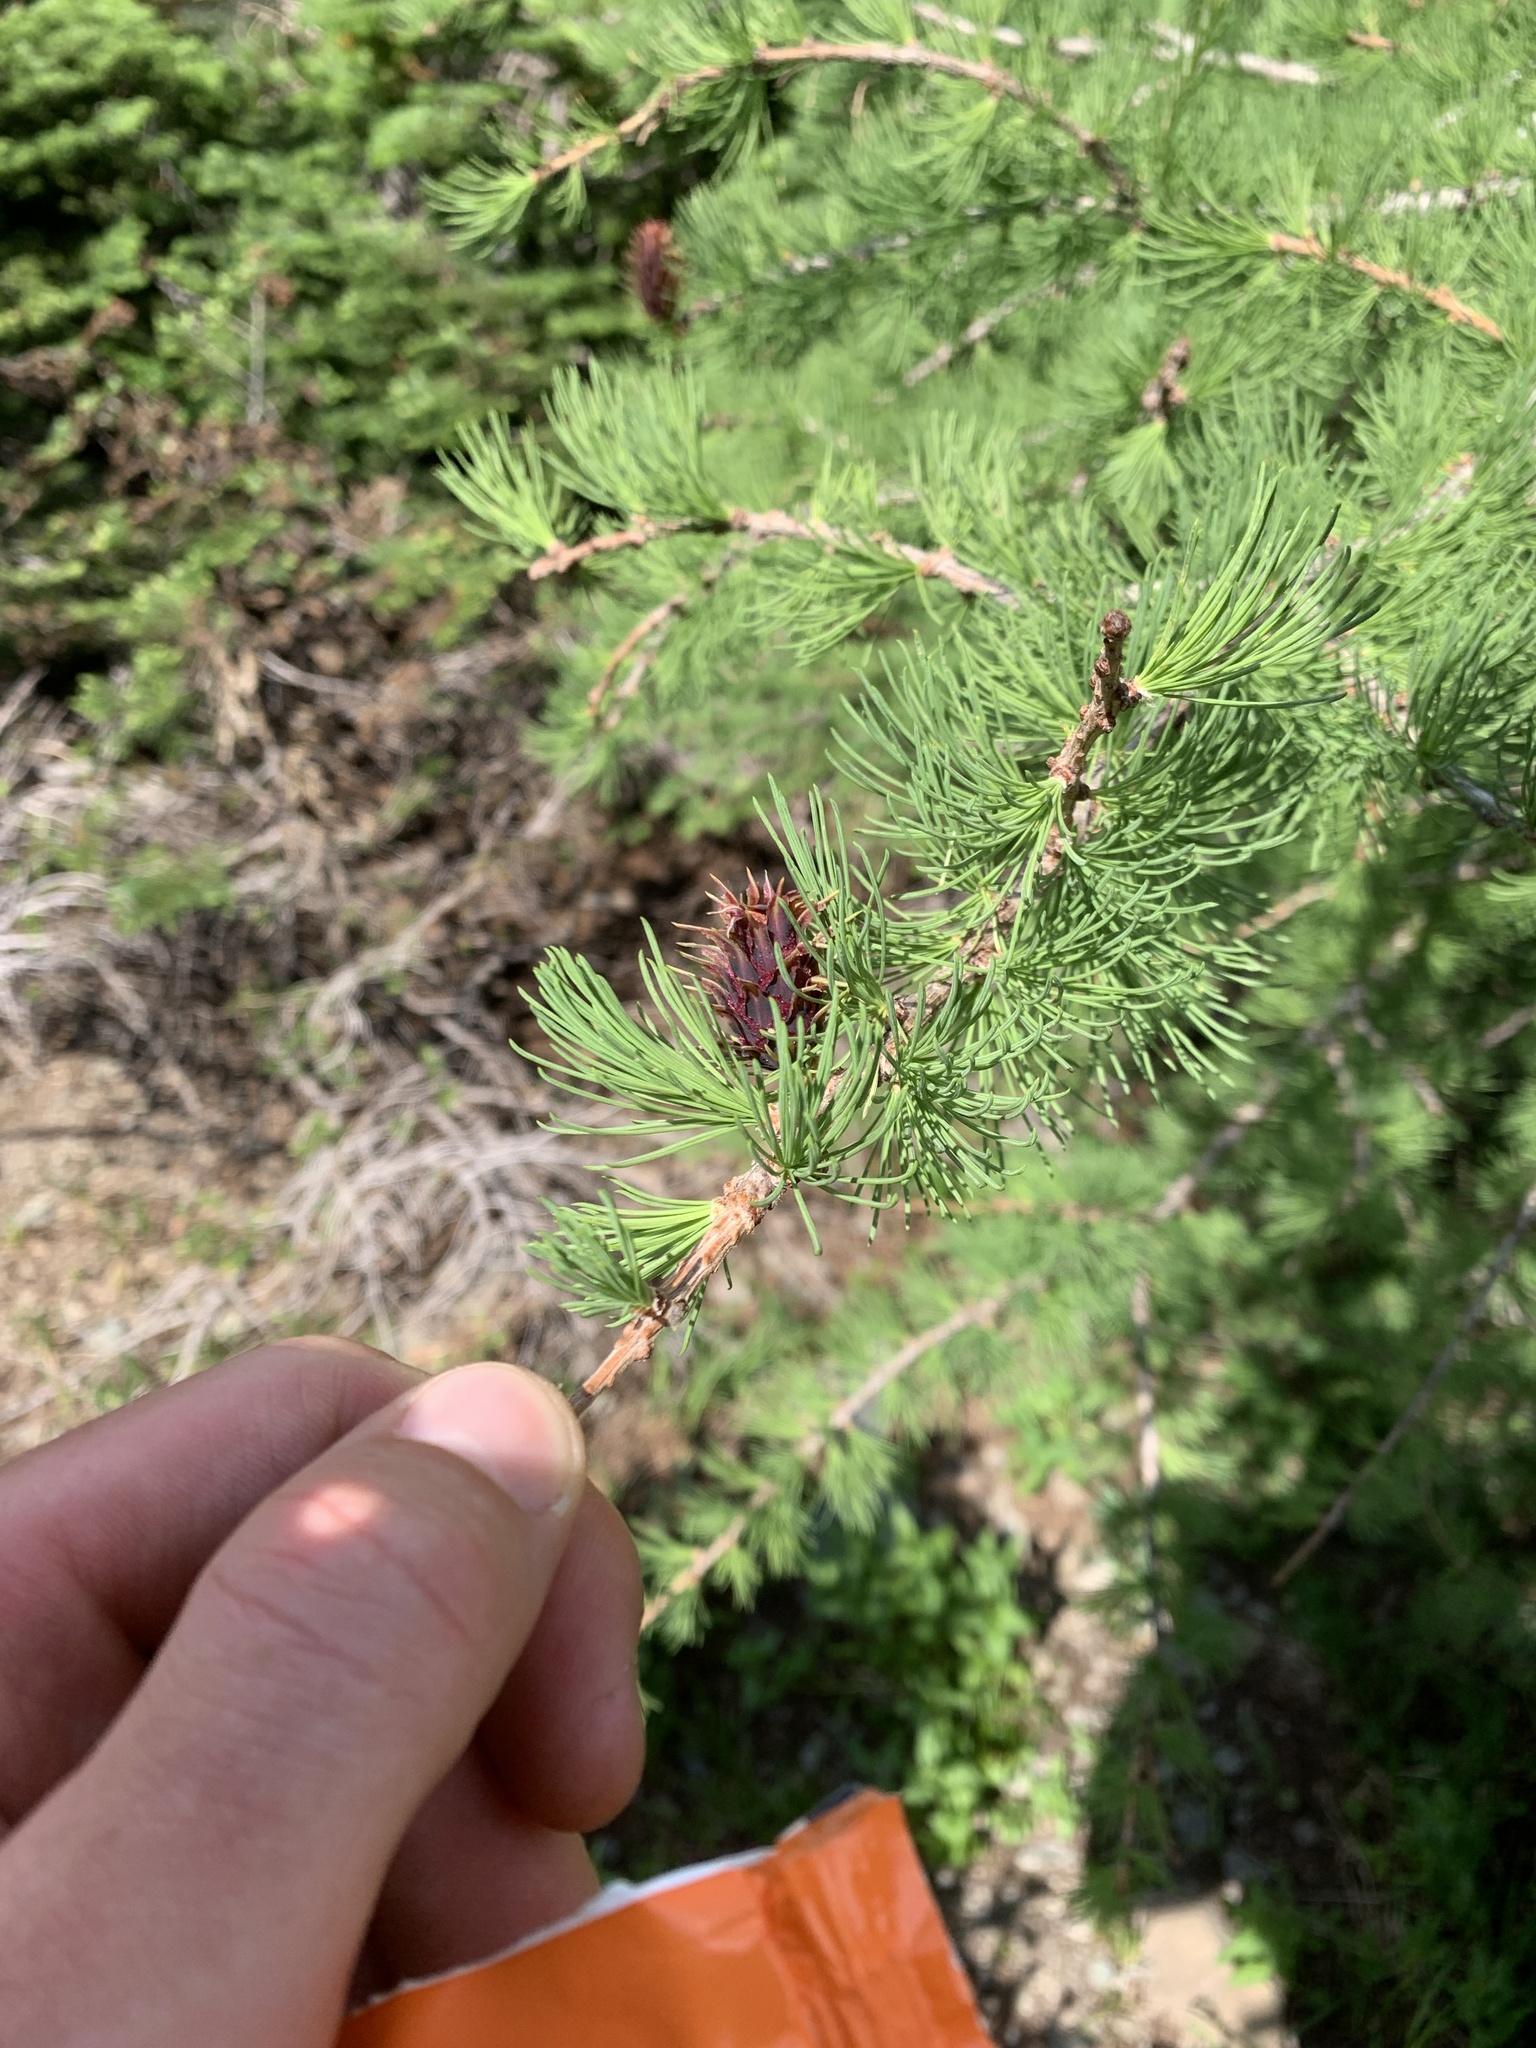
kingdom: Plantae
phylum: Tracheophyta
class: Pinopsida
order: Pinales
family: Pinaceae
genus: Larix
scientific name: Larix lyallii
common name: Alpine larch
